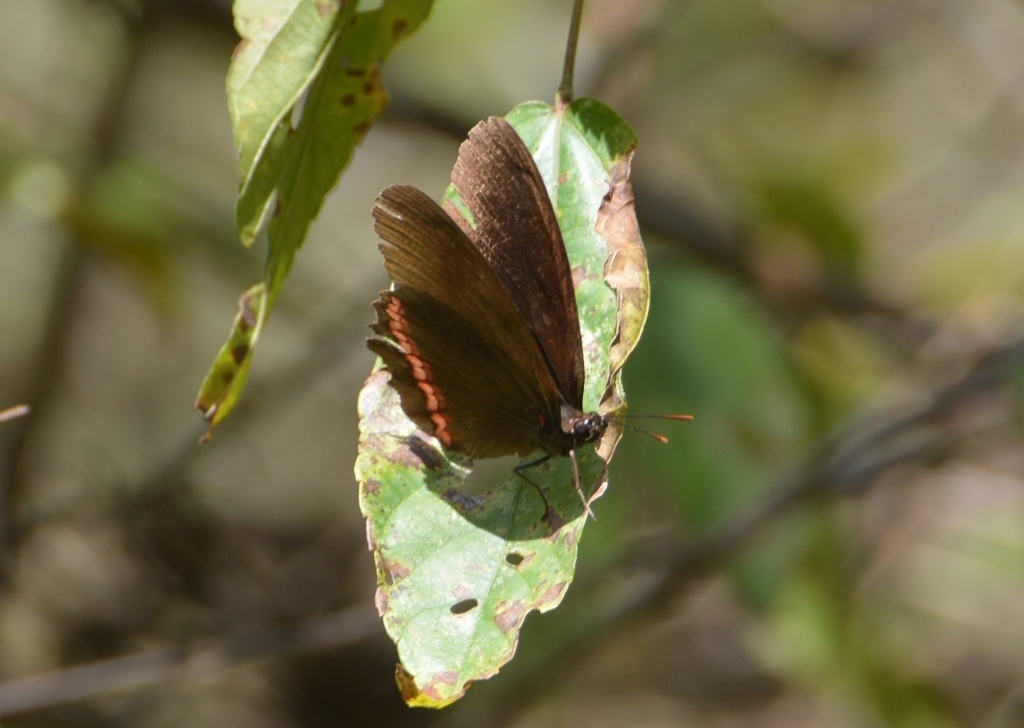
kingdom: Animalia
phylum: Arthropoda
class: Insecta
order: Lepidoptera
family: Nymphalidae
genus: Biblis
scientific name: Biblis aganisa
